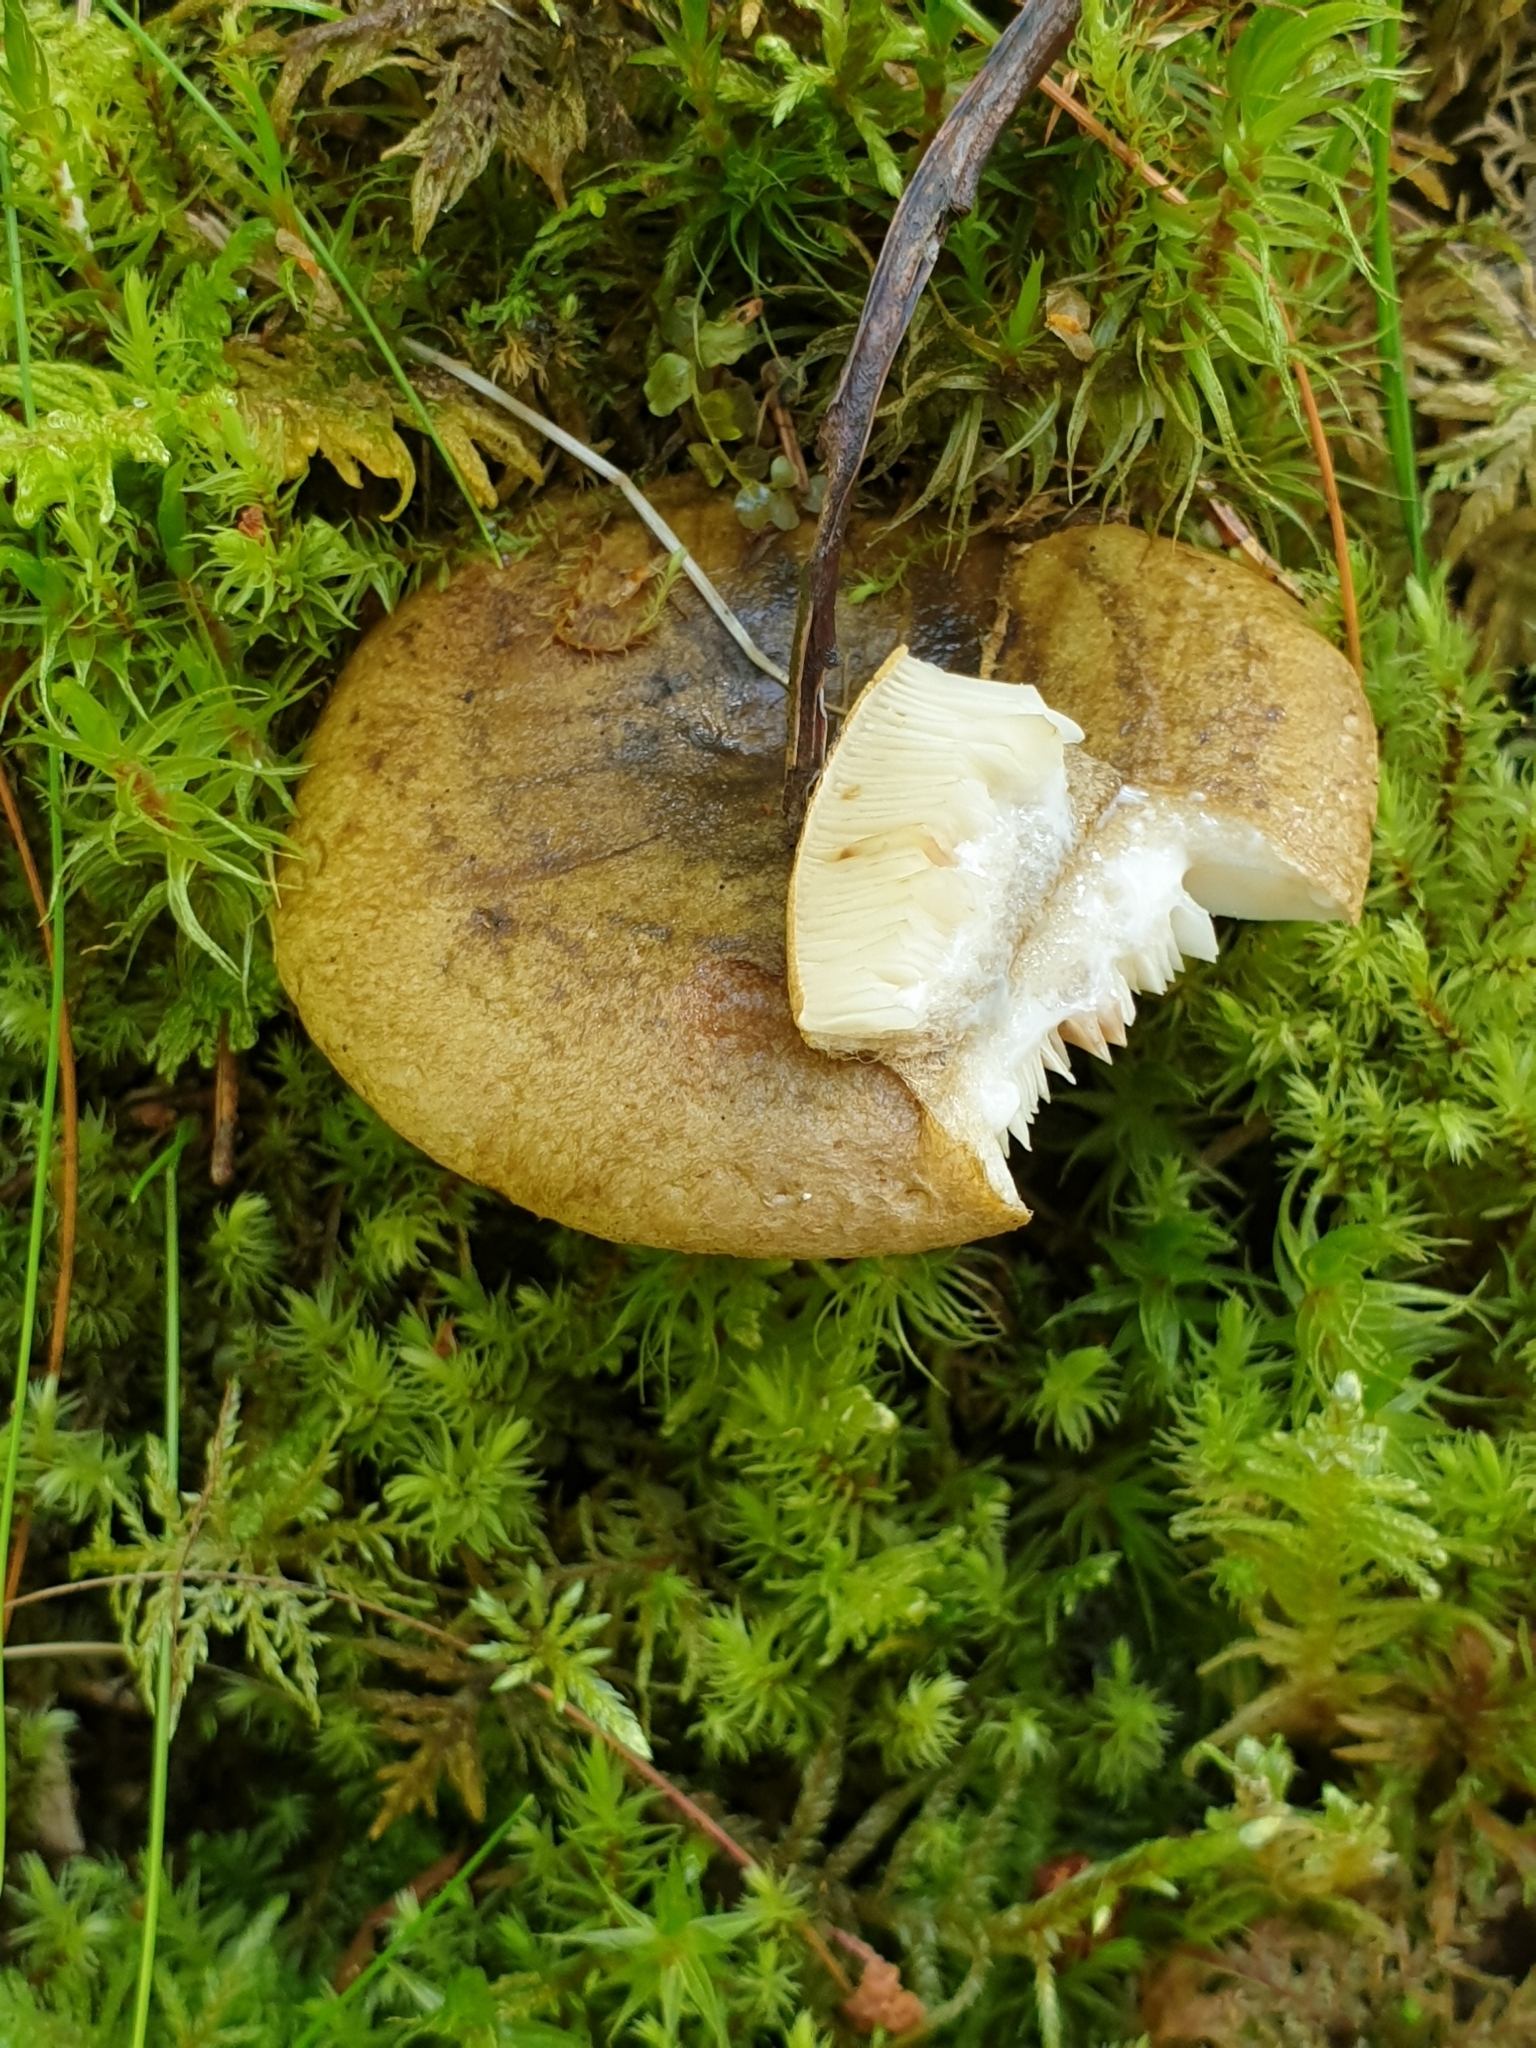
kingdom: Fungi
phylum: Basidiomycota
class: Agaricomycetes
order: Russulales
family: Russulaceae
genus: Lactarius
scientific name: Lactarius turpis
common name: Ugly milk-cap
